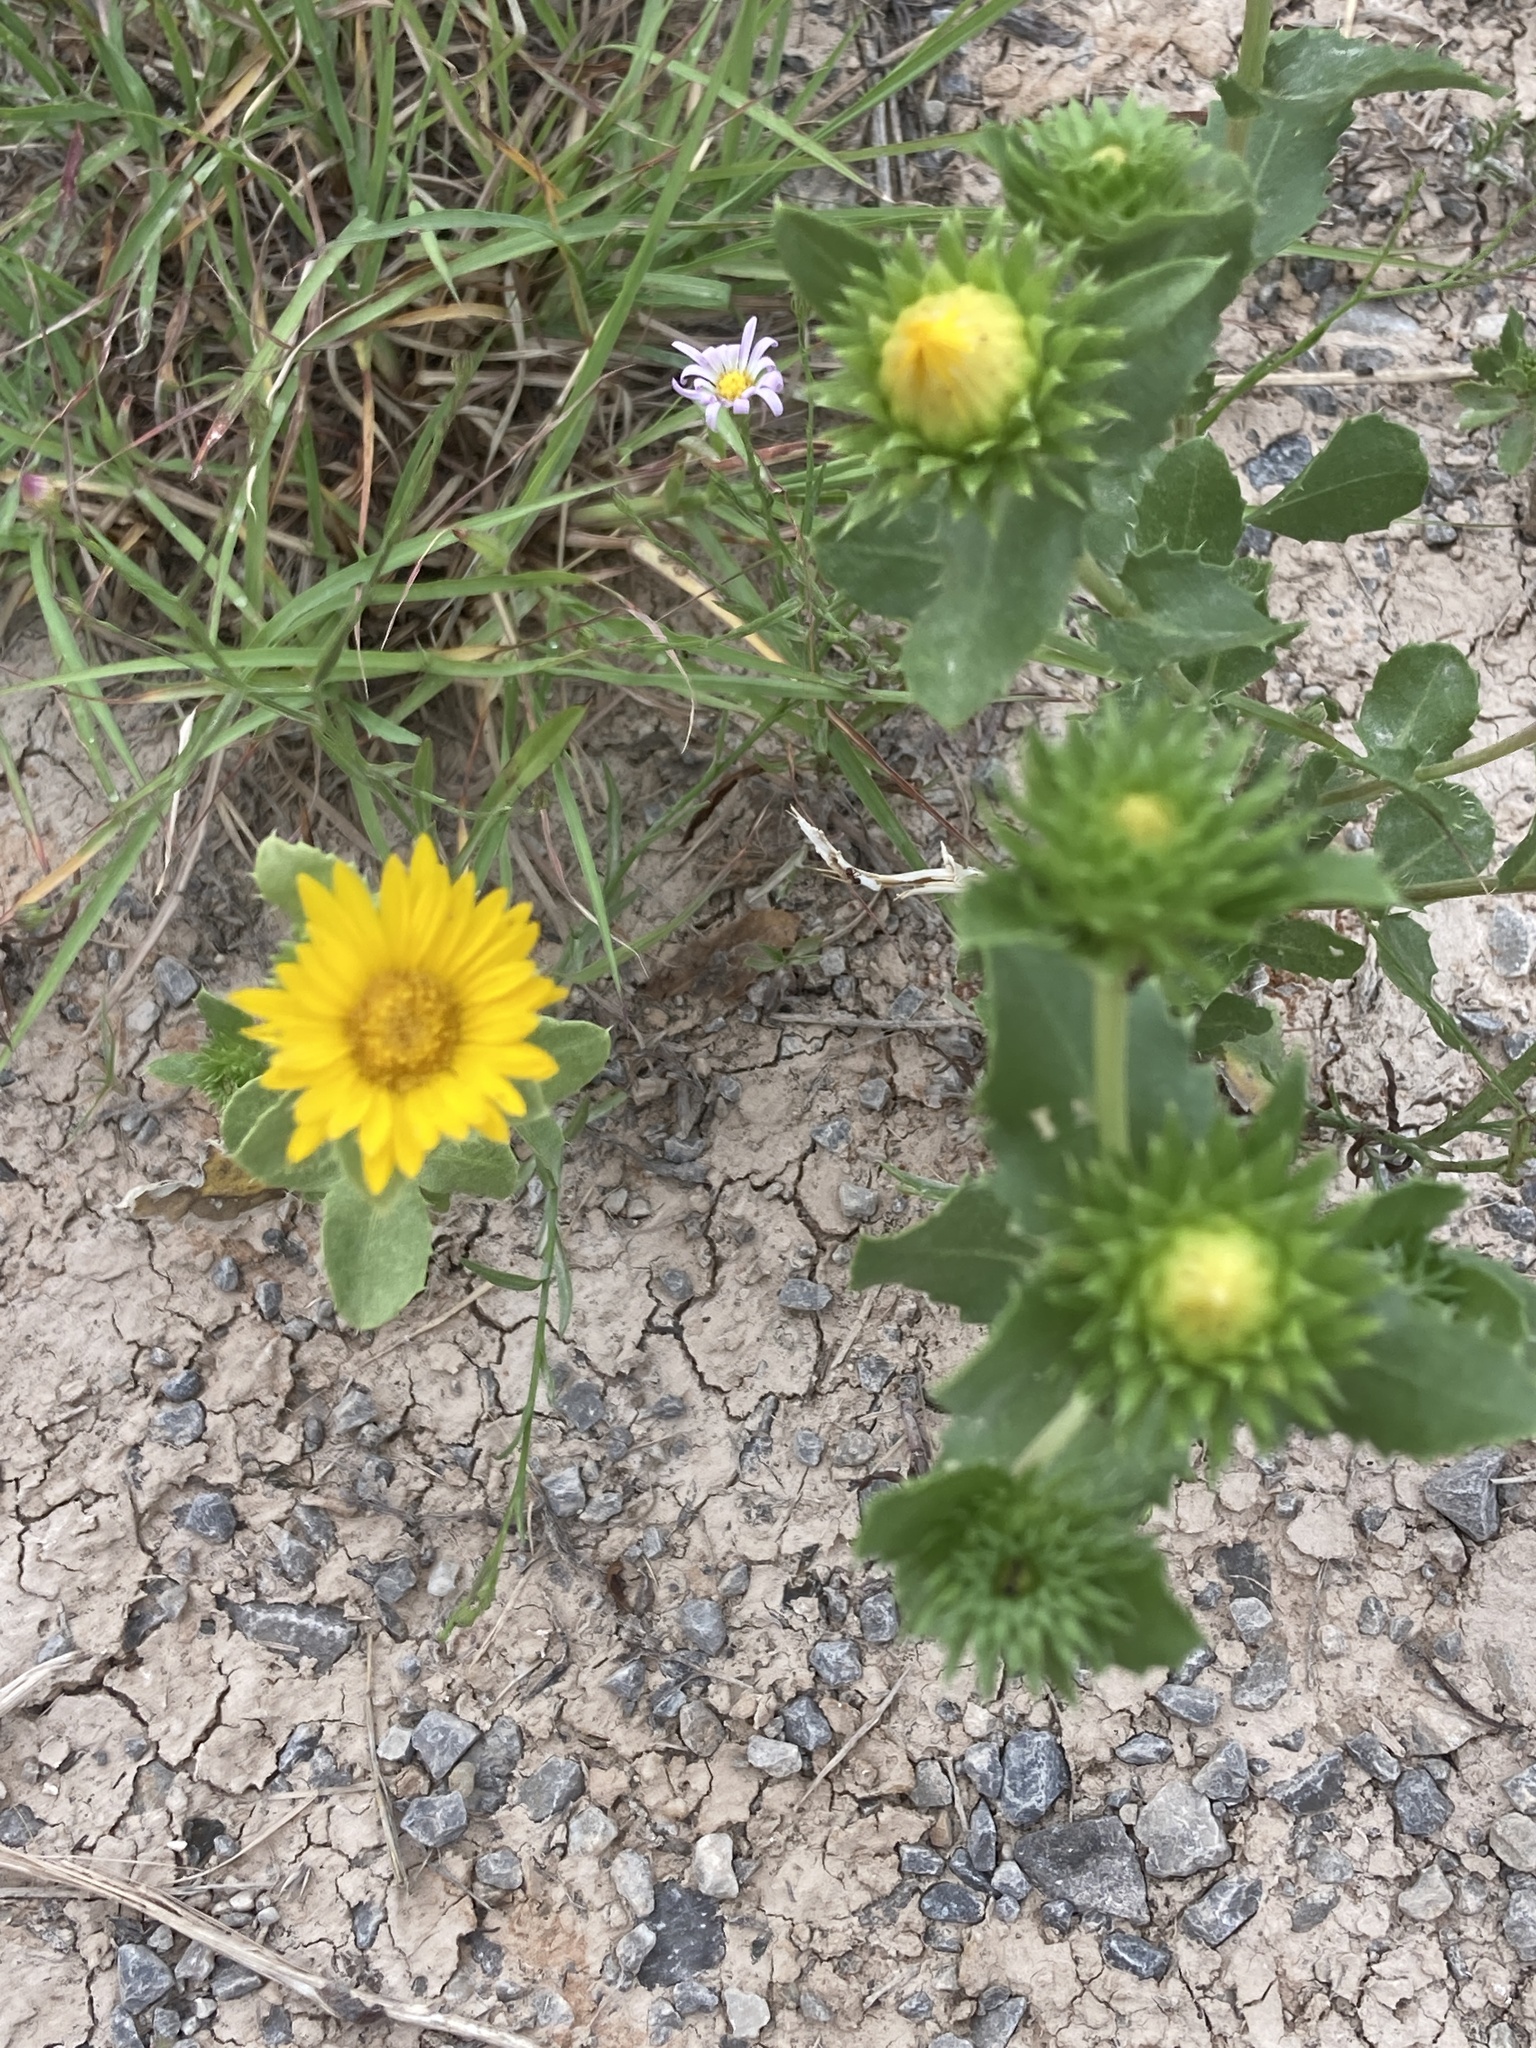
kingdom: Plantae
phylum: Tracheophyta
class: Magnoliopsida
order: Asterales
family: Asteraceae
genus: Grindelia
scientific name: Grindelia ciliata
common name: Goldenweed
